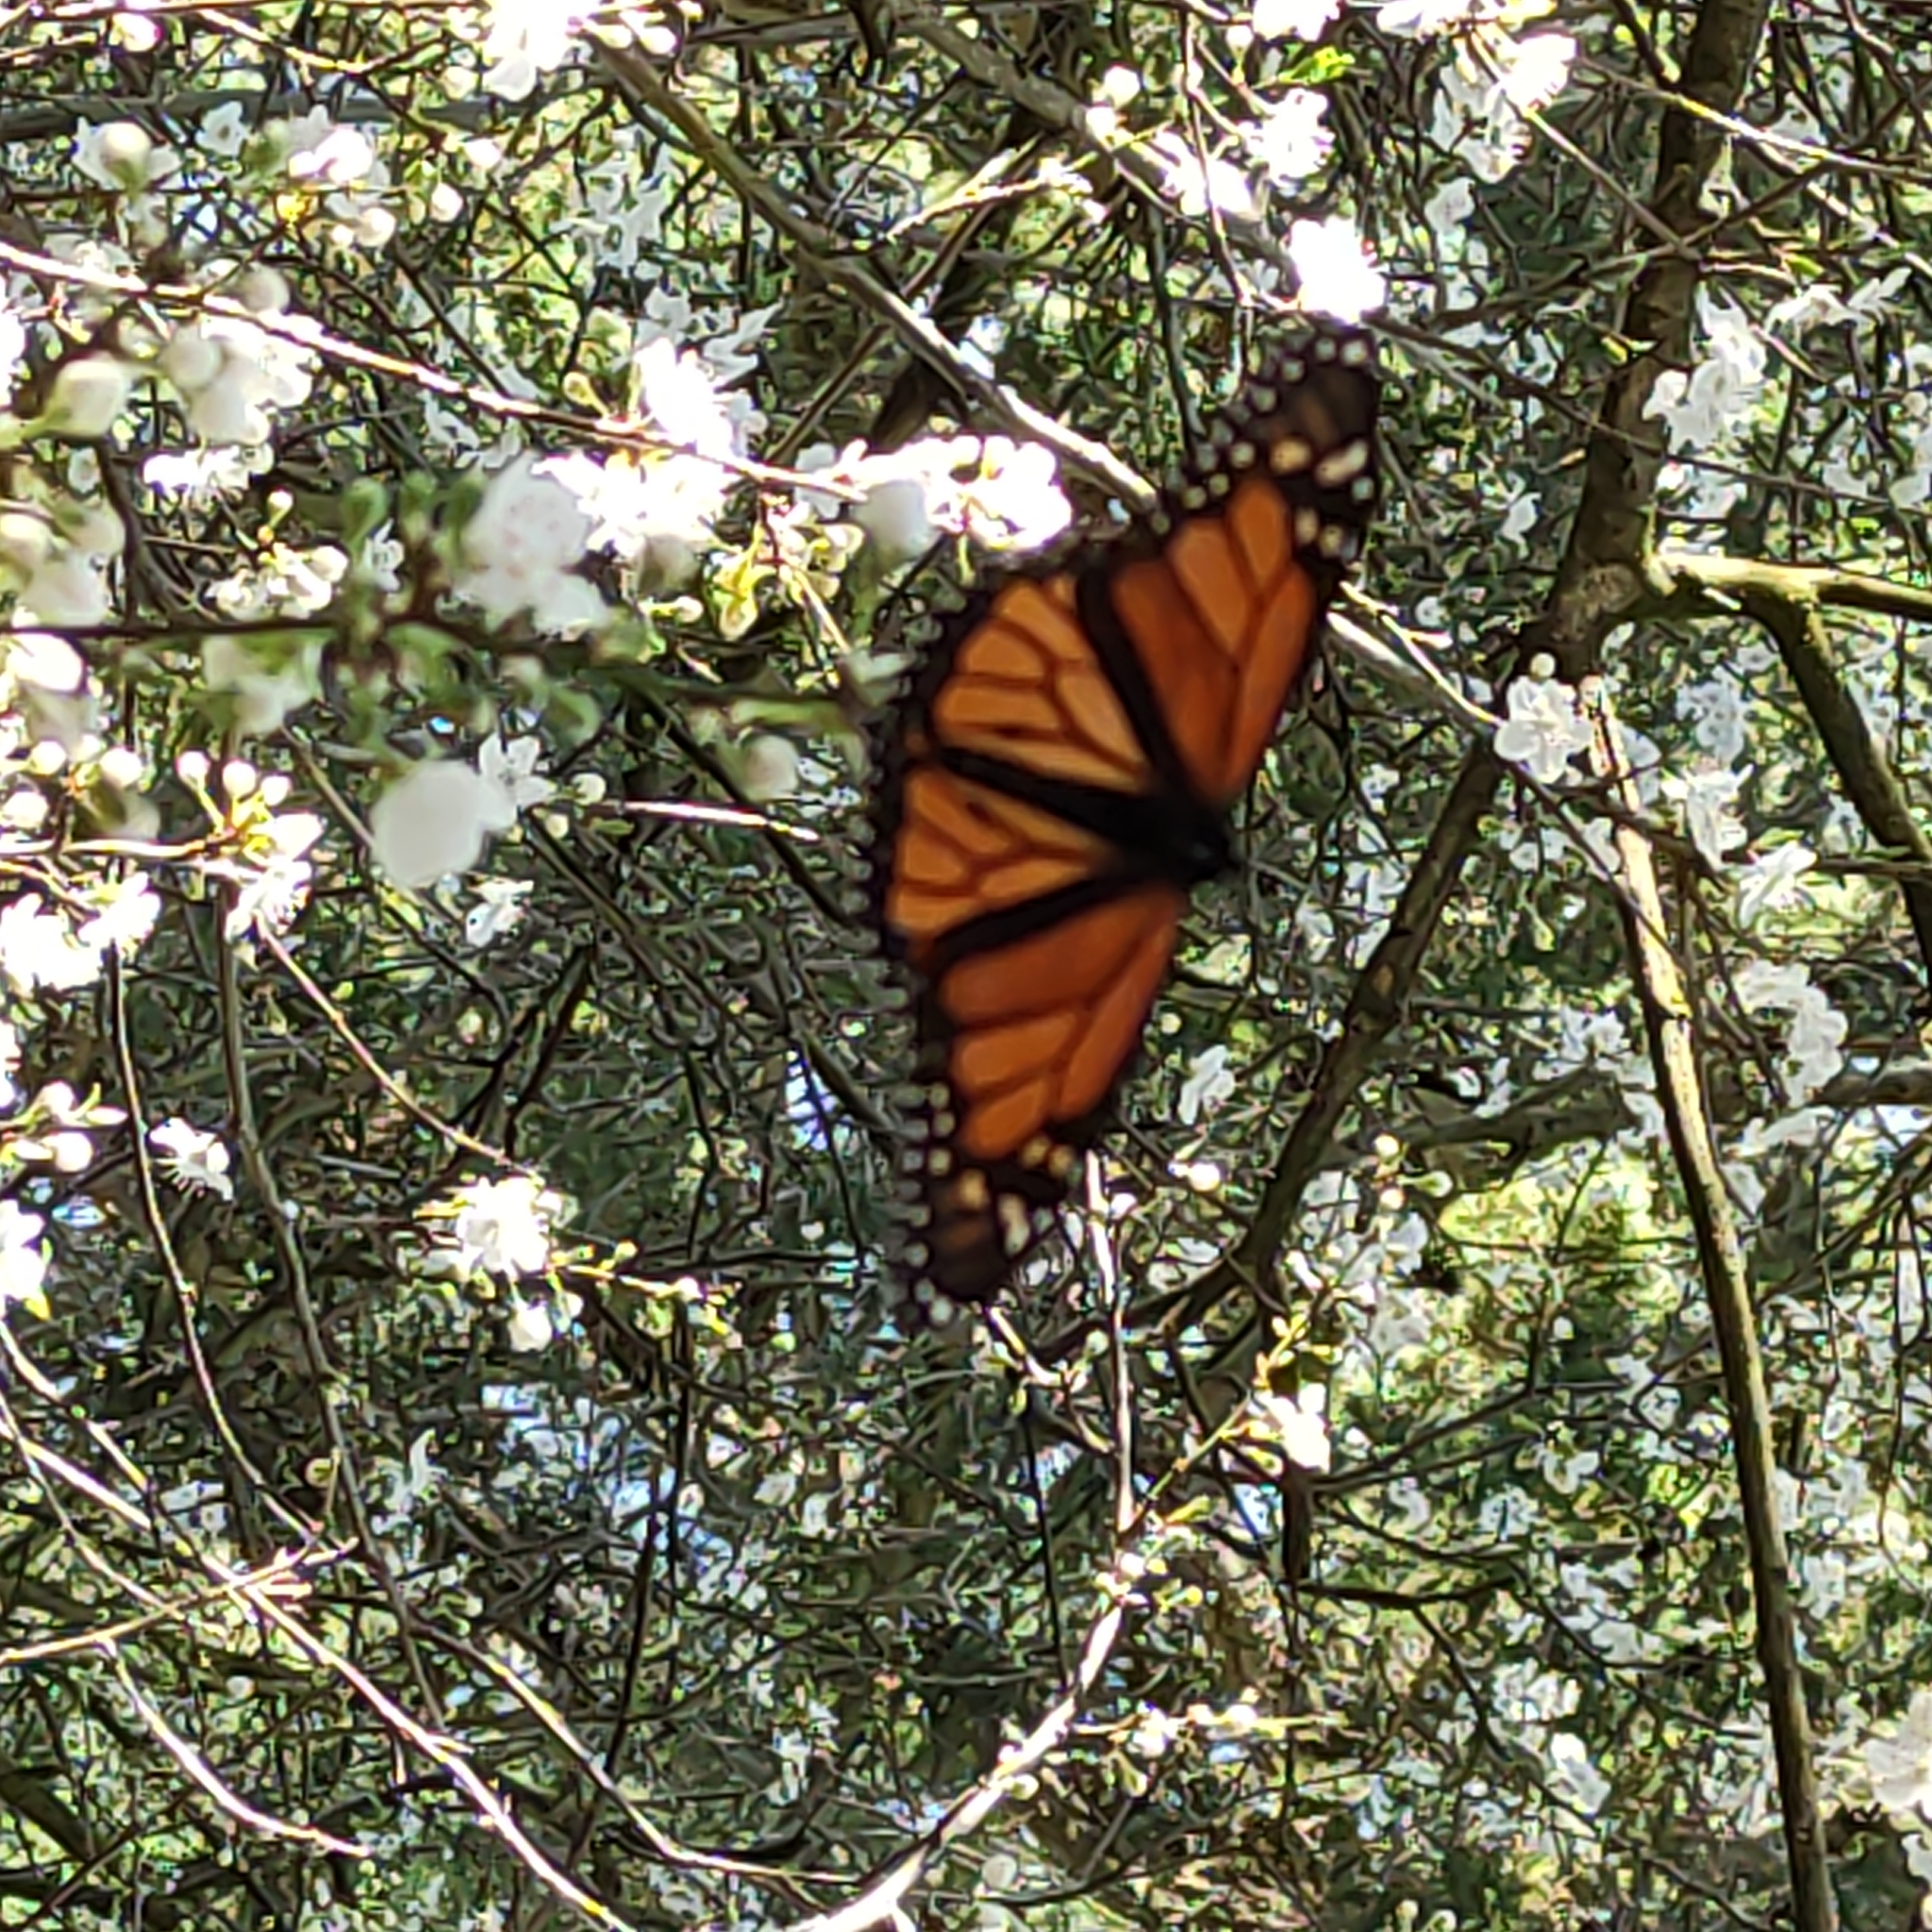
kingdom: Animalia
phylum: Arthropoda
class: Insecta
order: Lepidoptera
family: Nymphalidae
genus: Danaus
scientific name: Danaus plexippus
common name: Monarch
